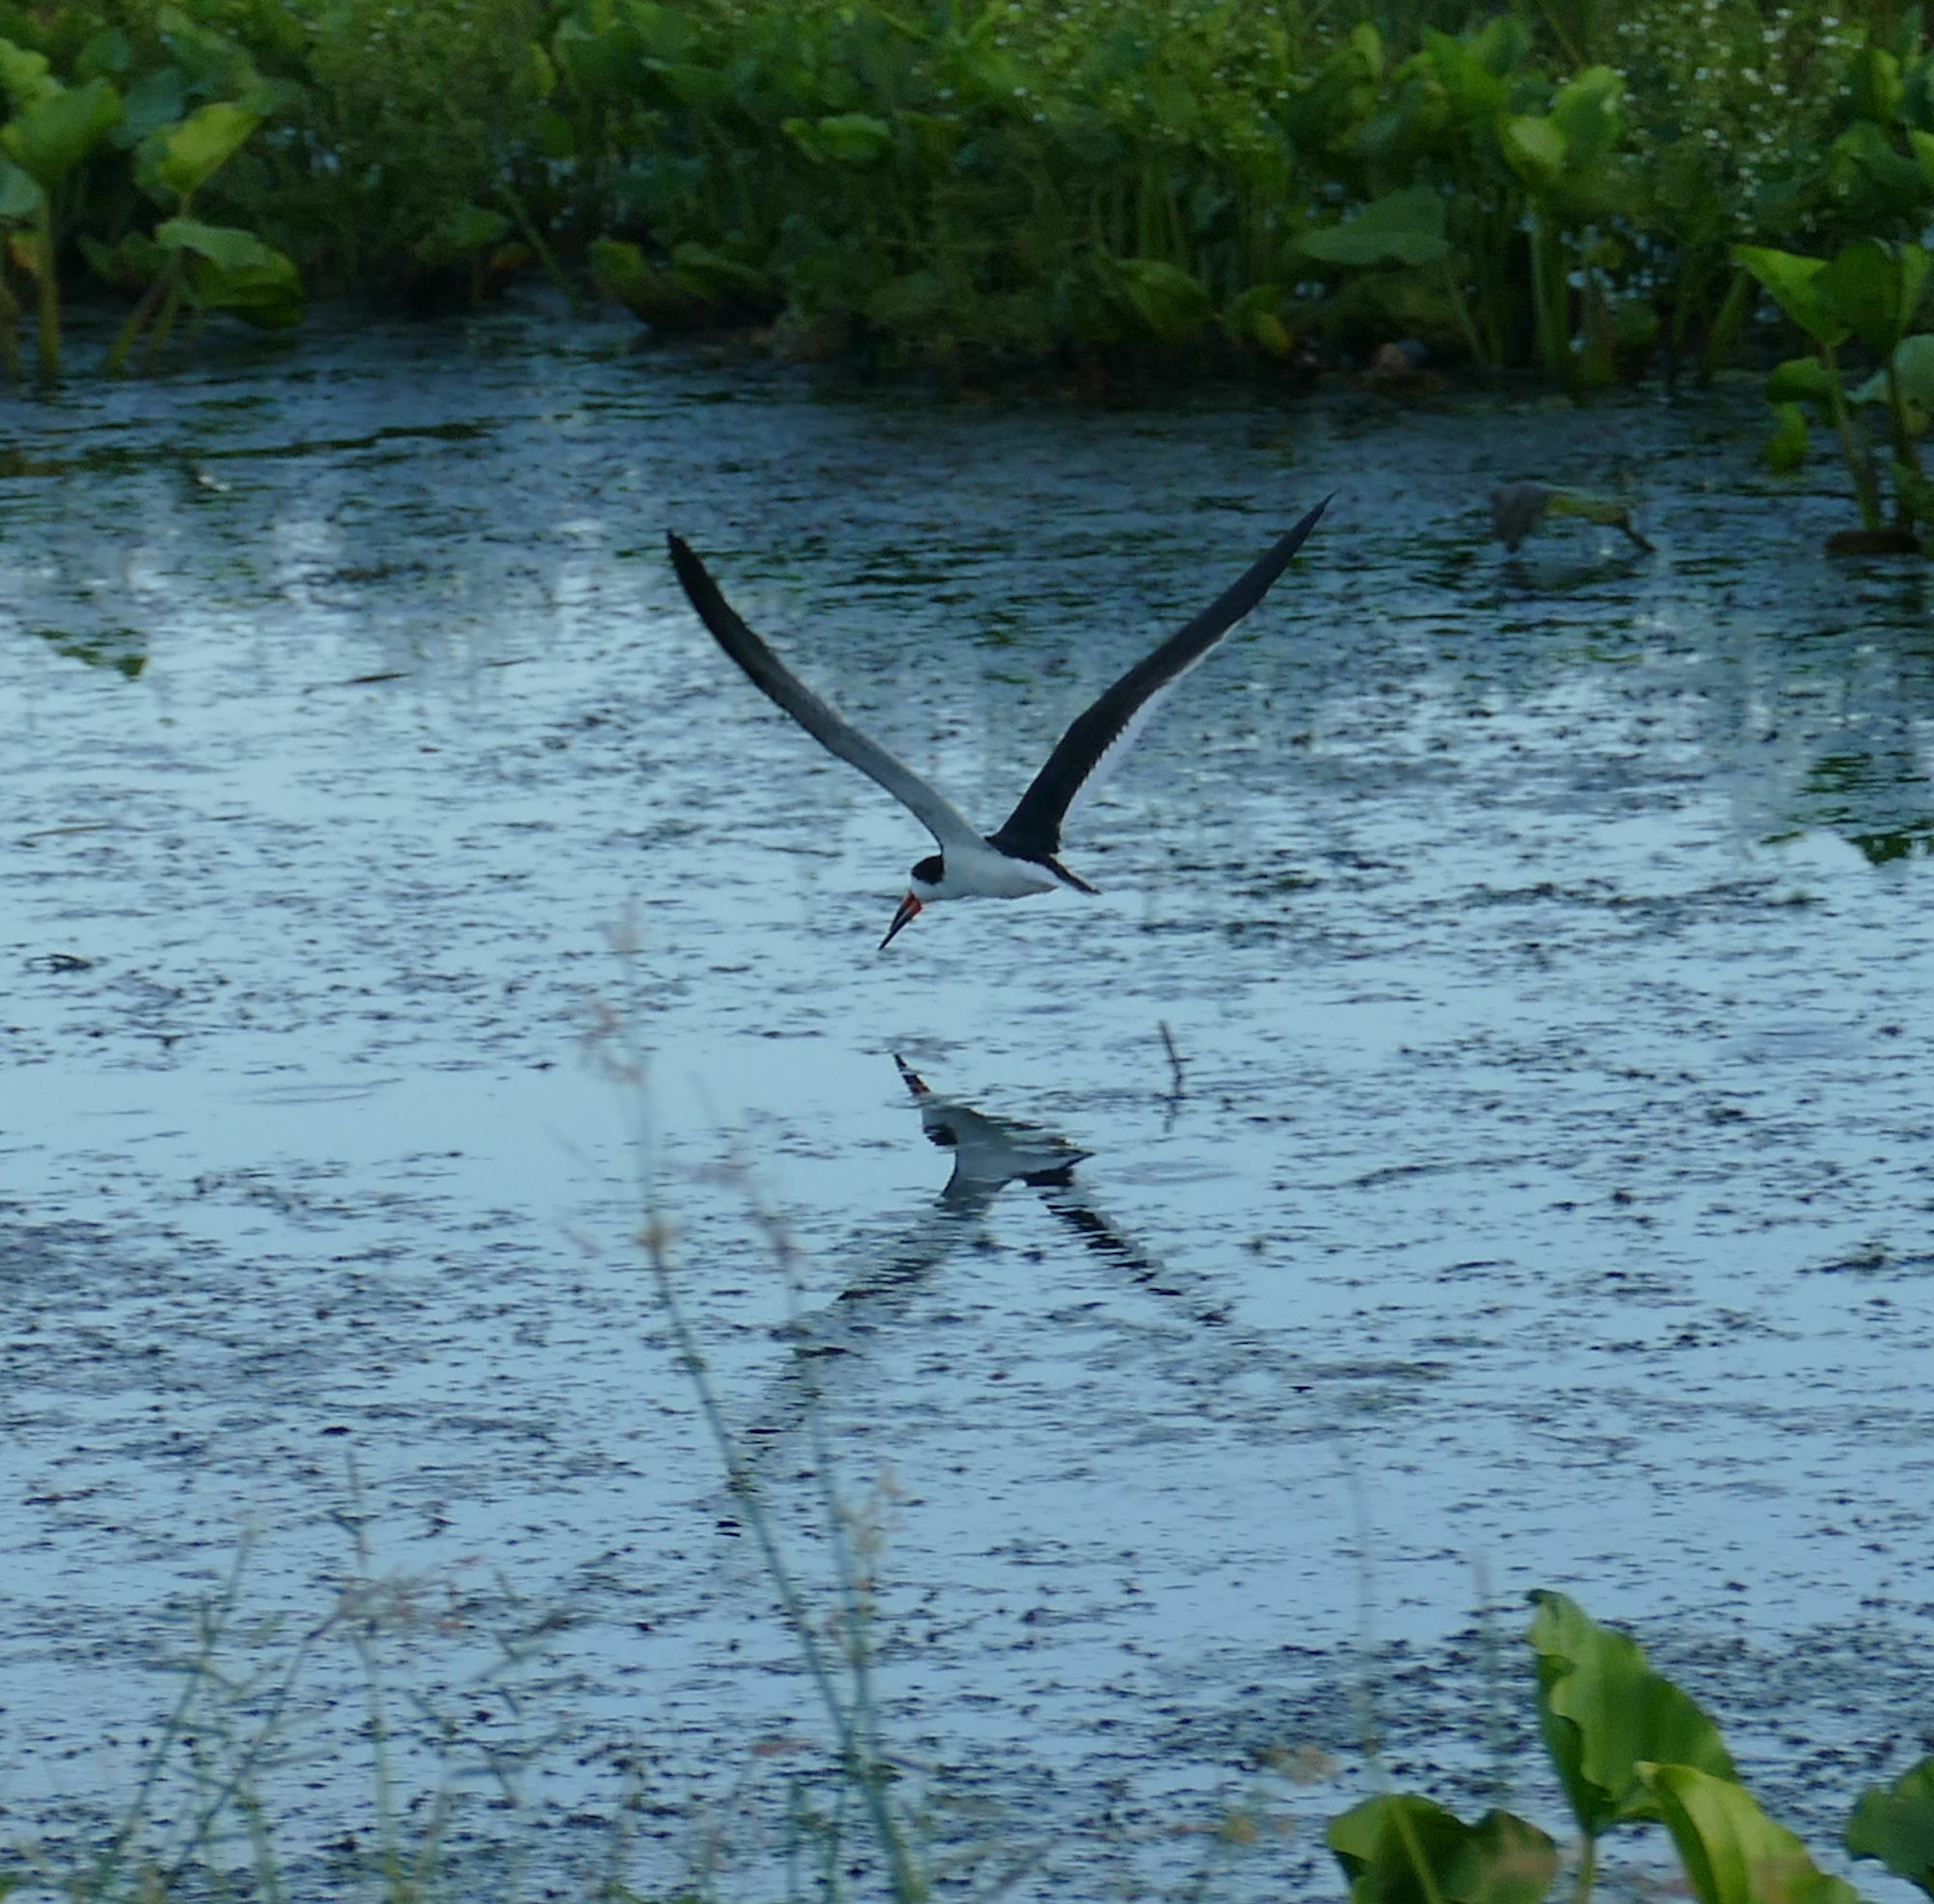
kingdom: Animalia
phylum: Chordata
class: Aves
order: Charadriiformes
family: Laridae
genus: Rynchops
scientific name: Rynchops niger
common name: Black skimmer
